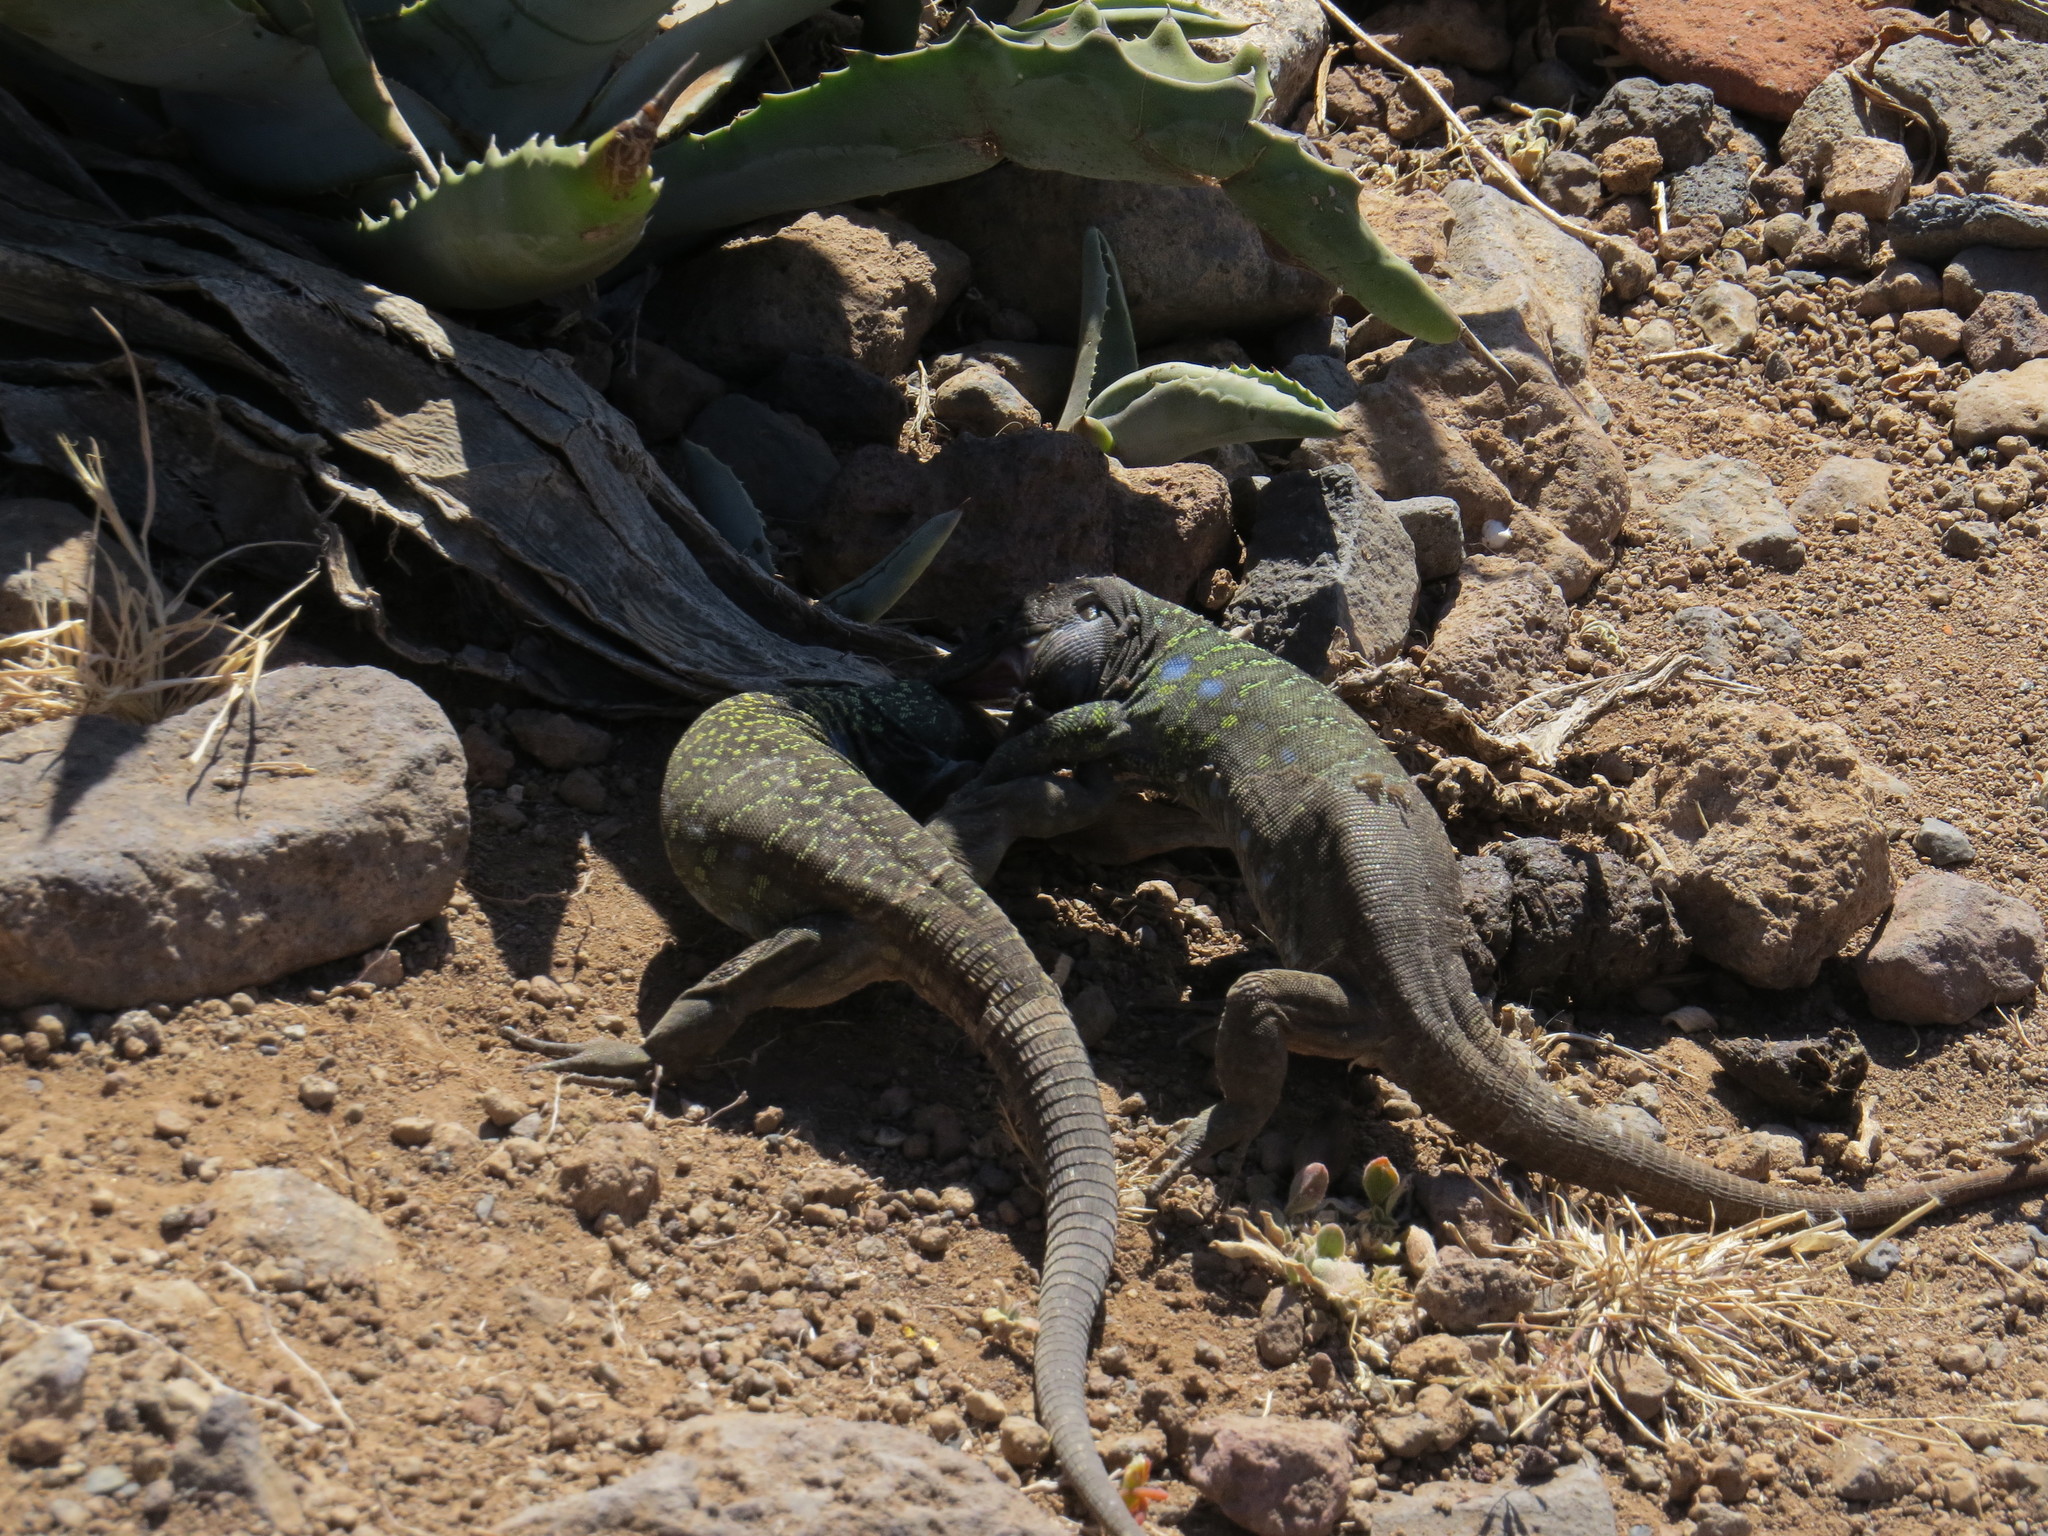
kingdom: Animalia
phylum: Chordata
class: Squamata
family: Lacertidae
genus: Gallotia
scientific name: Gallotia galloti
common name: Gallot's lizard
